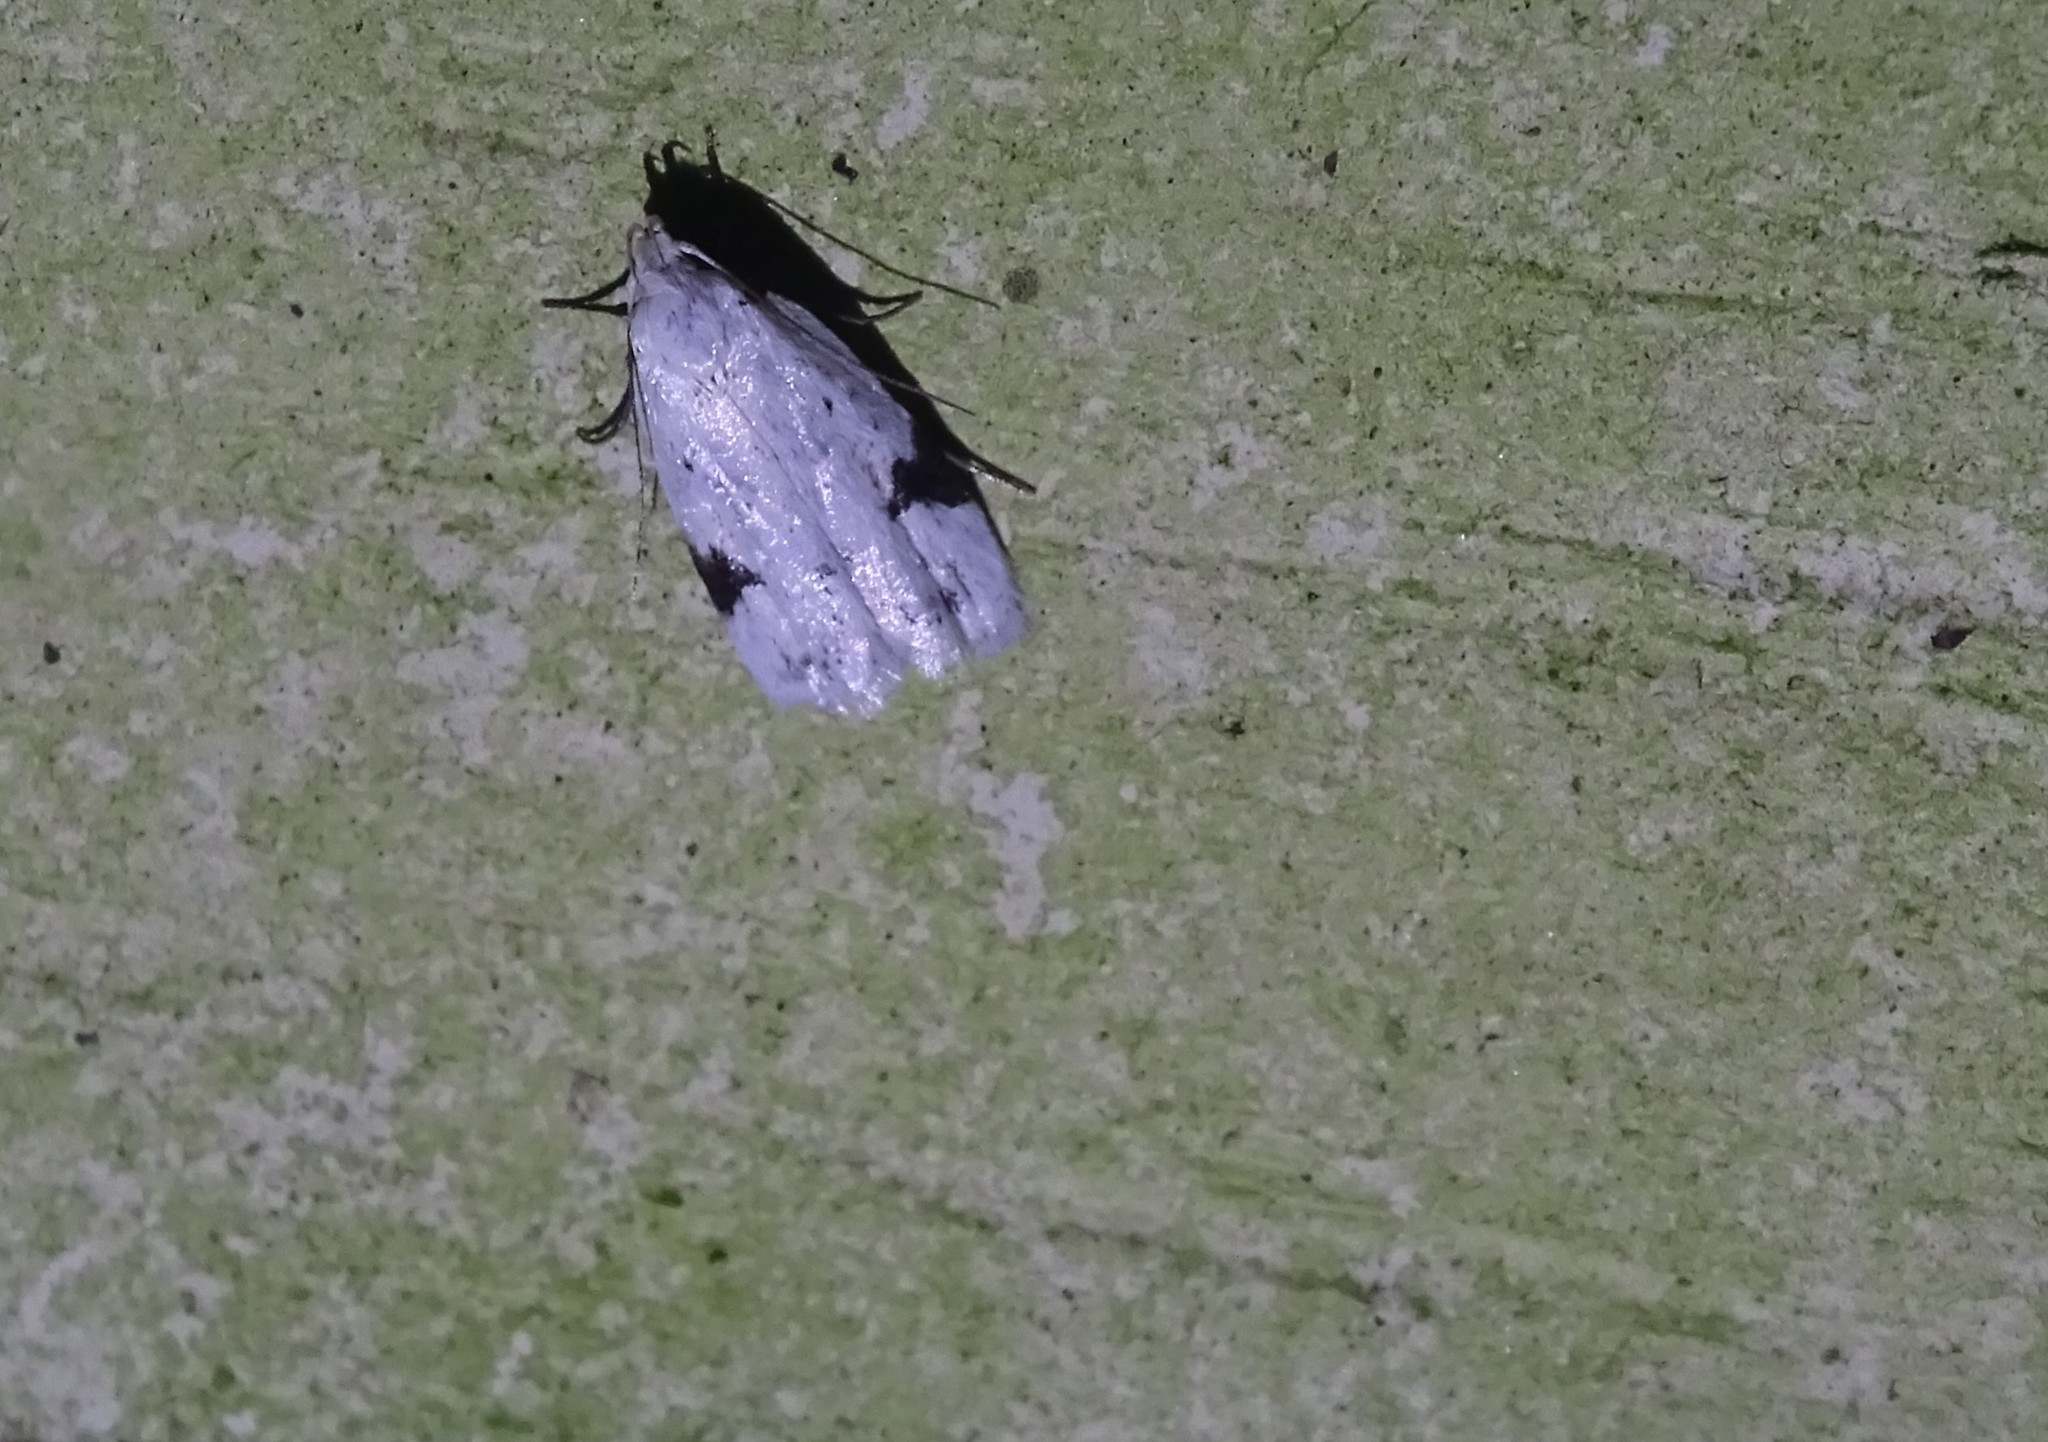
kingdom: Animalia
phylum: Arthropoda
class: Insecta
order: Lepidoptera
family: Oecophoridae
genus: Inga
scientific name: Inga sparsiciliella
